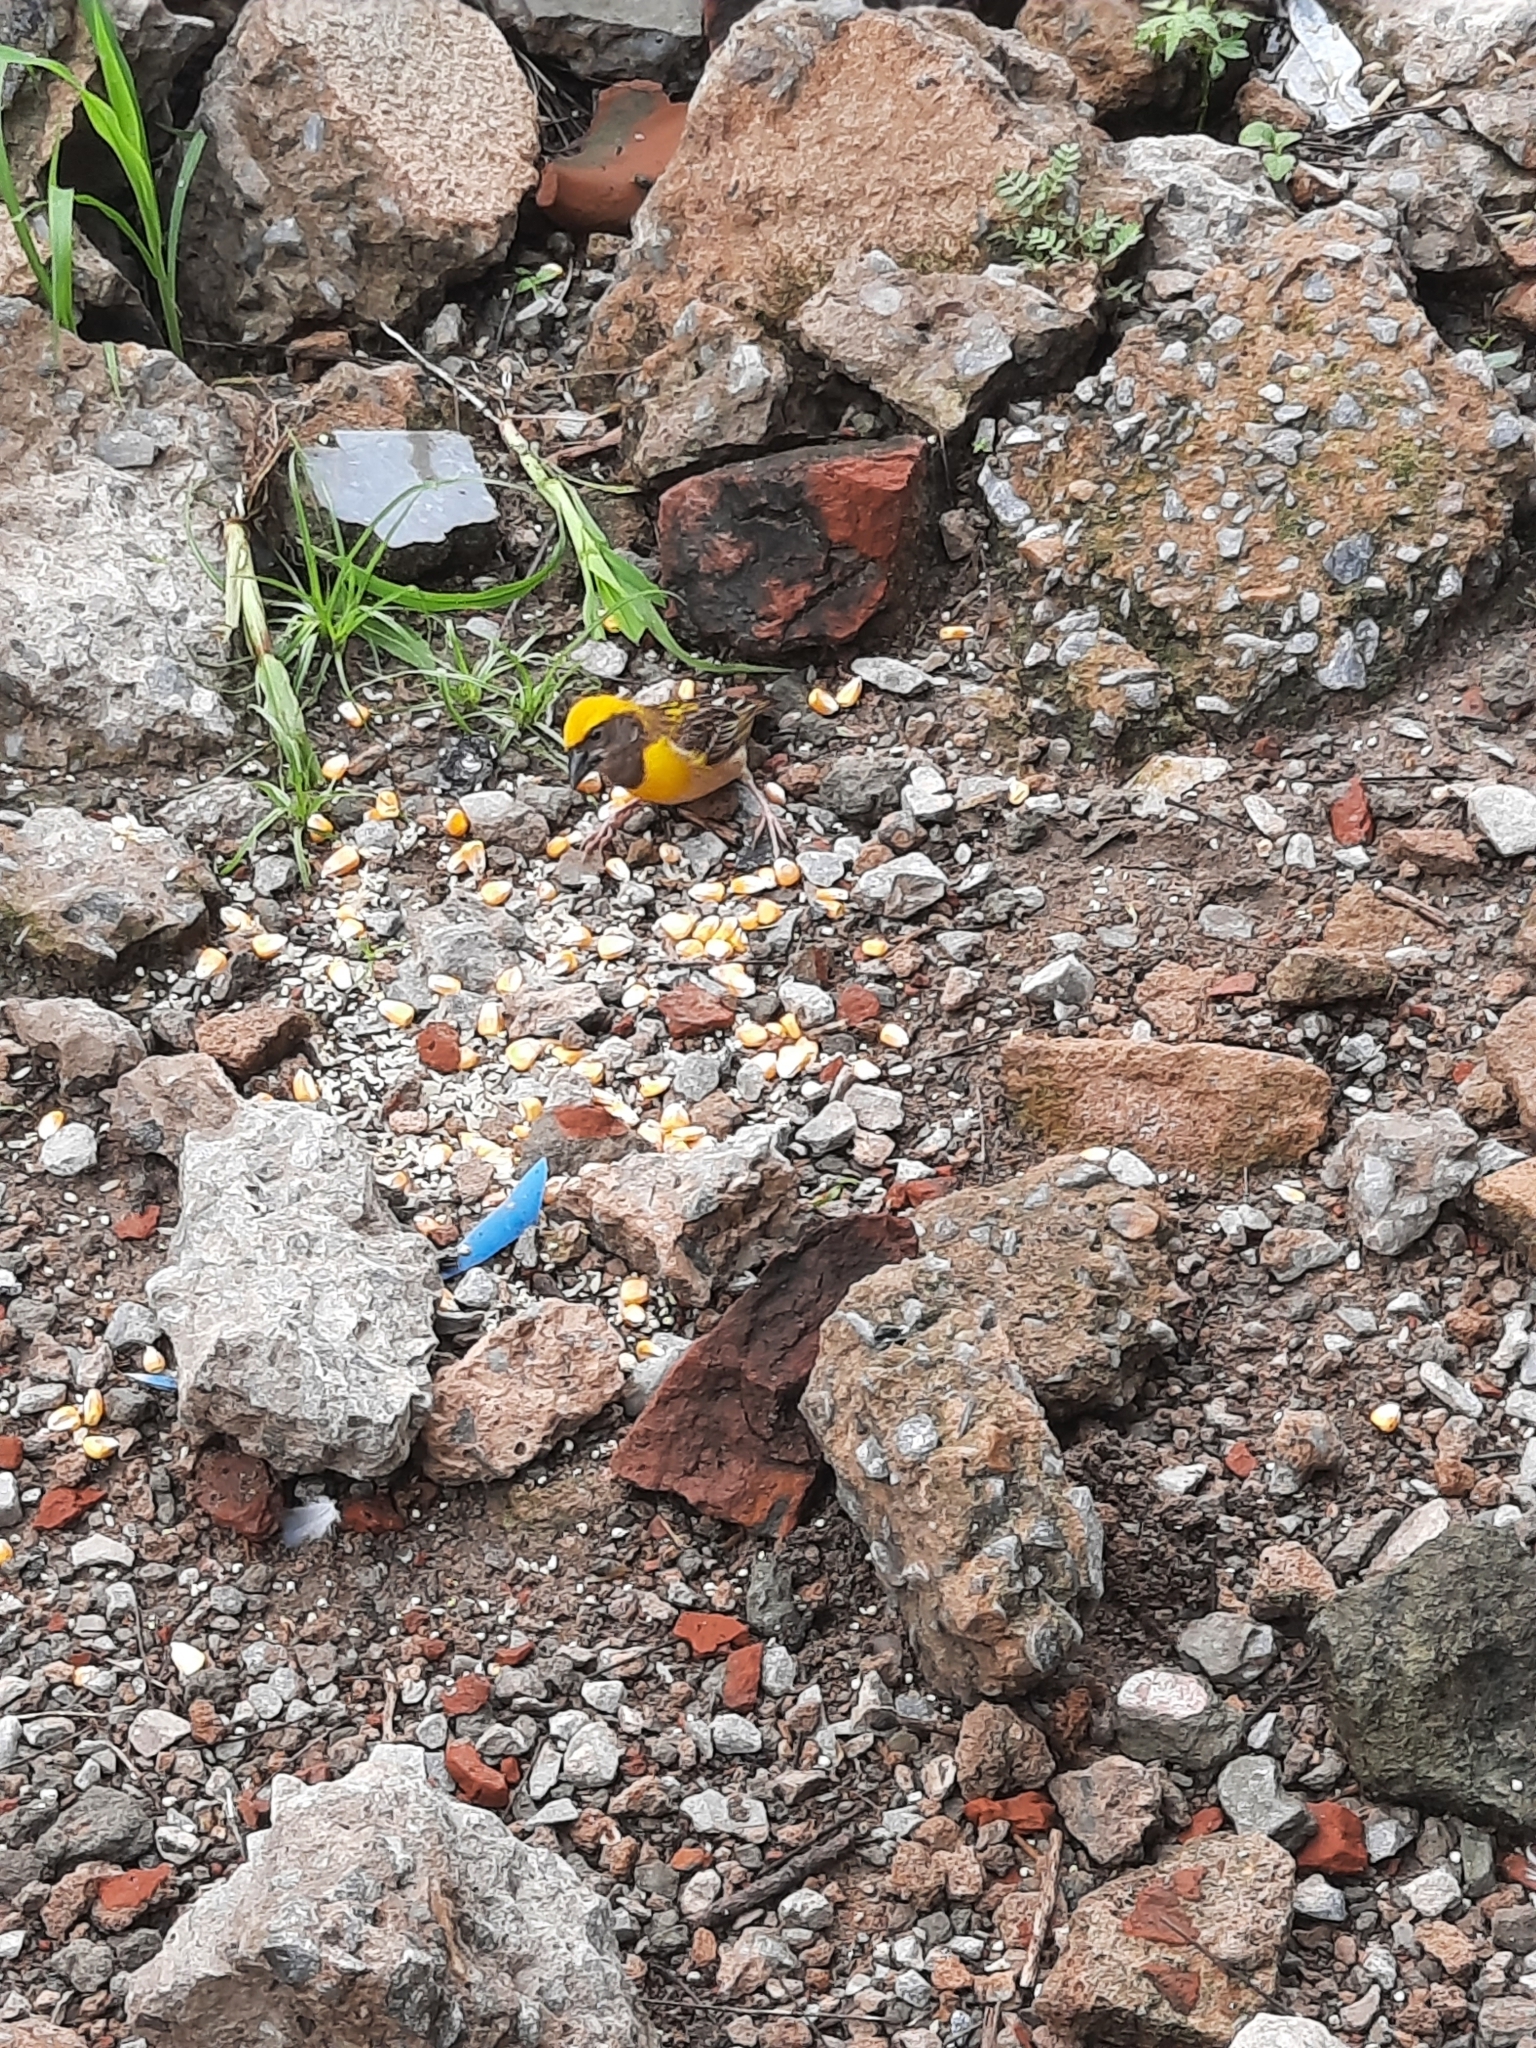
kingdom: Animalia
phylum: Chordata
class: Aves
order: Passeriformes
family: Ploceidae
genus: Ploceus
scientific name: Ploceus philippinus
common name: Baya weaver
